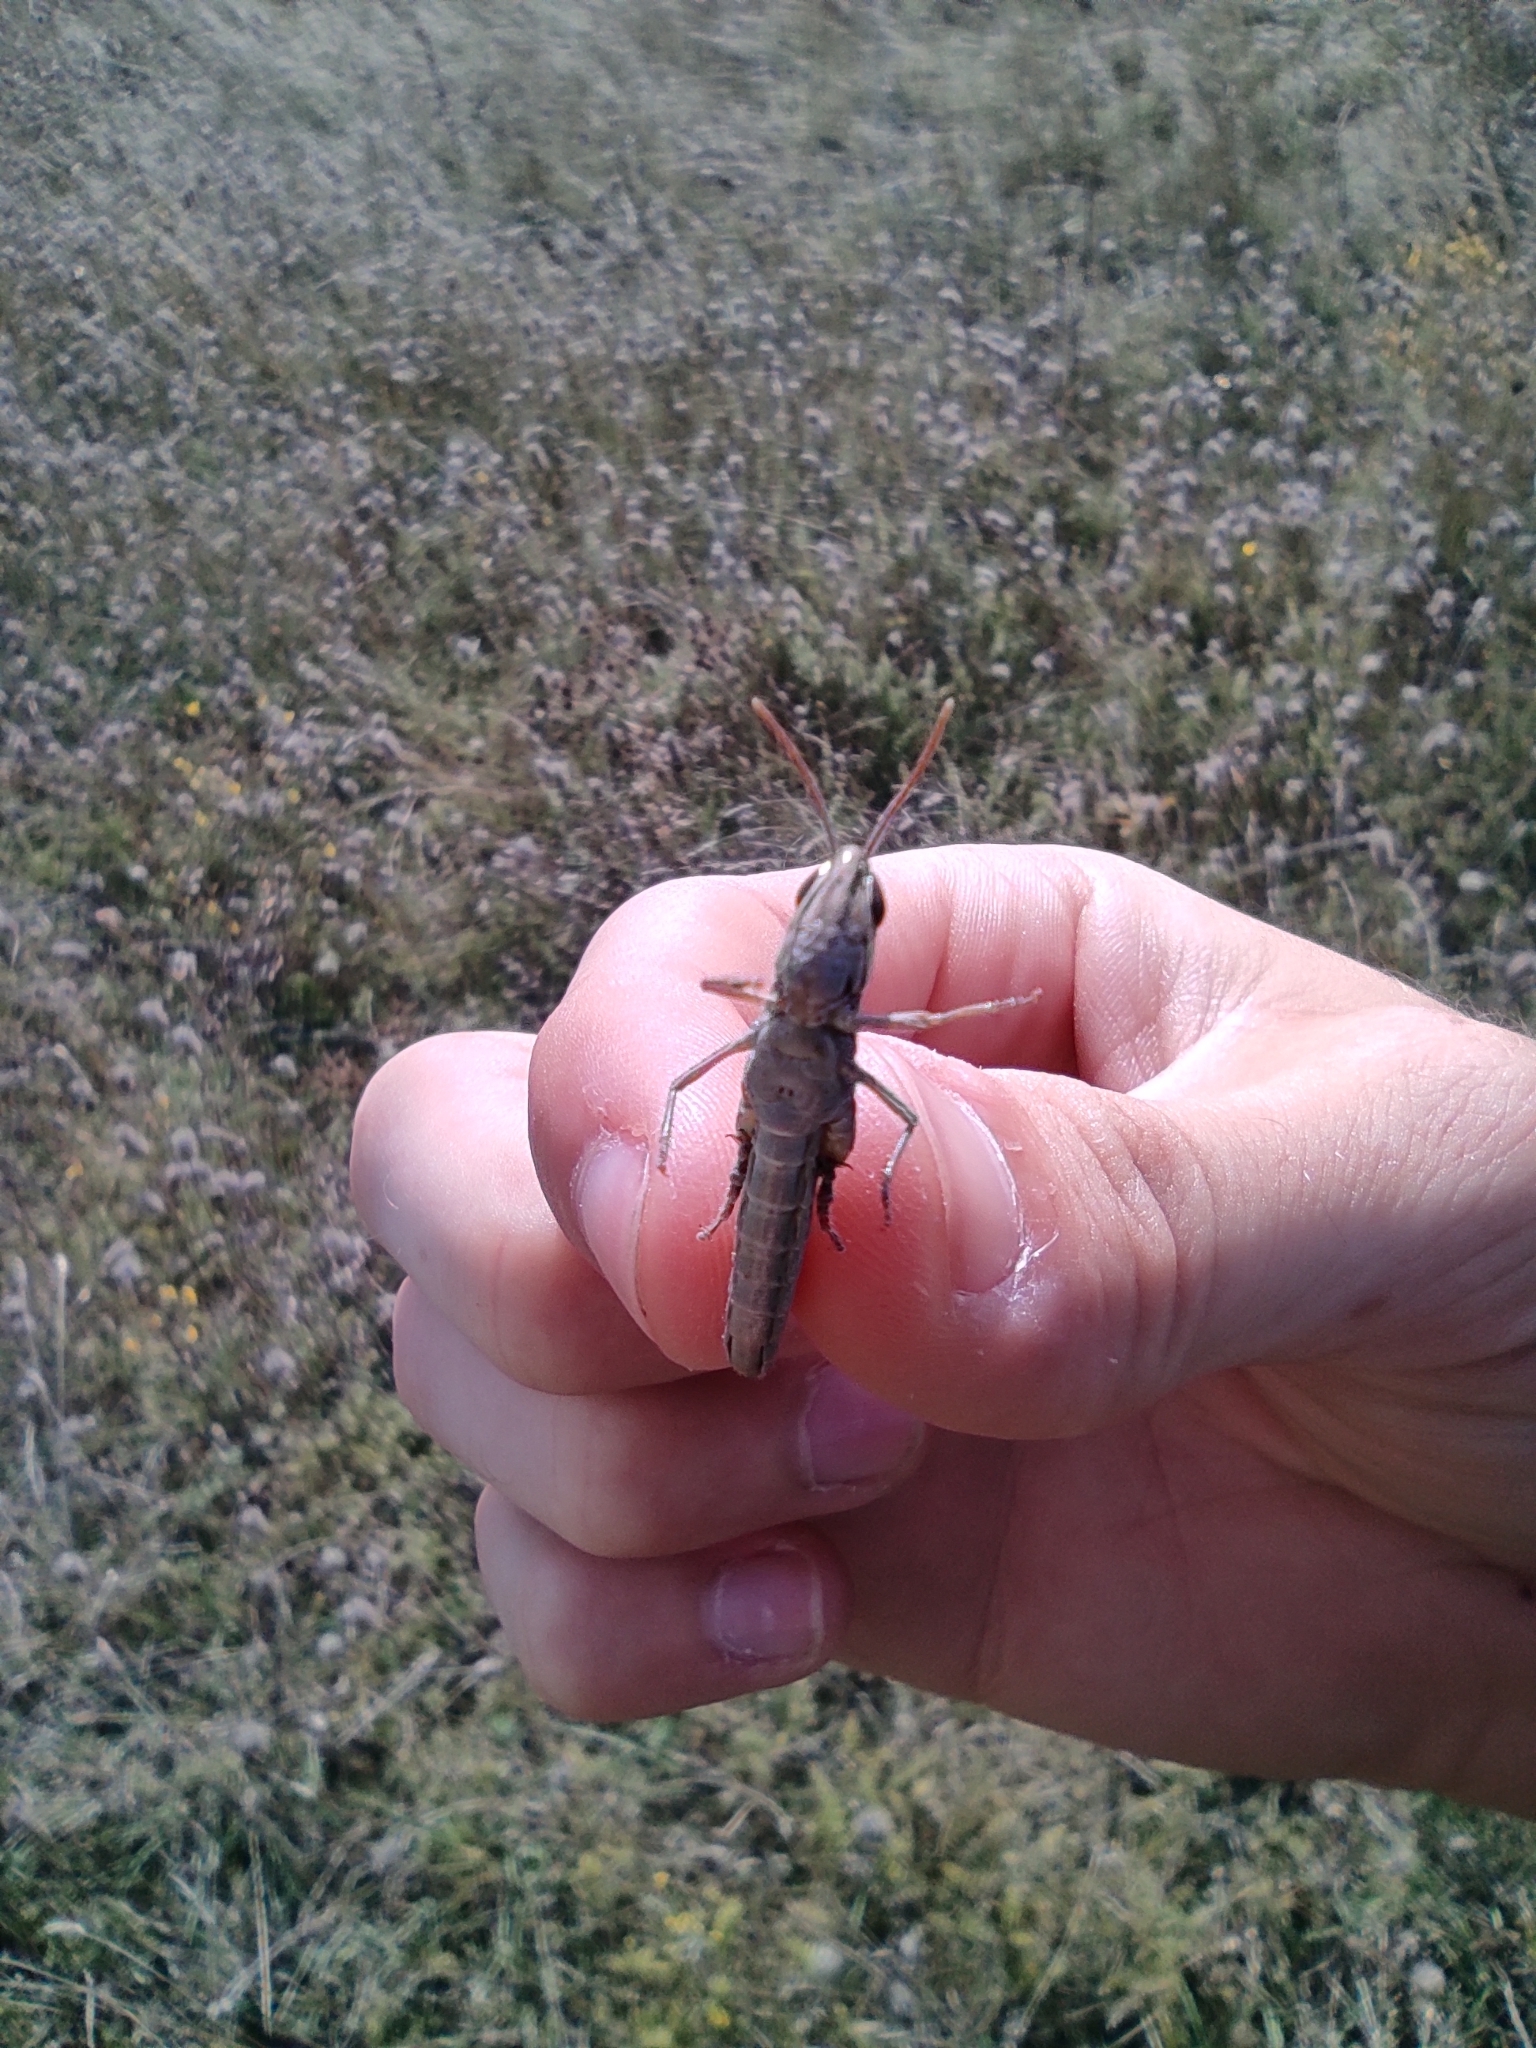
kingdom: Animalia
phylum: Arthropoda
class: Insecta
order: Orthoptera
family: Acrididae
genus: Euchorthippus
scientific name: Euchorthippus declivus
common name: Common straw grasshopper
